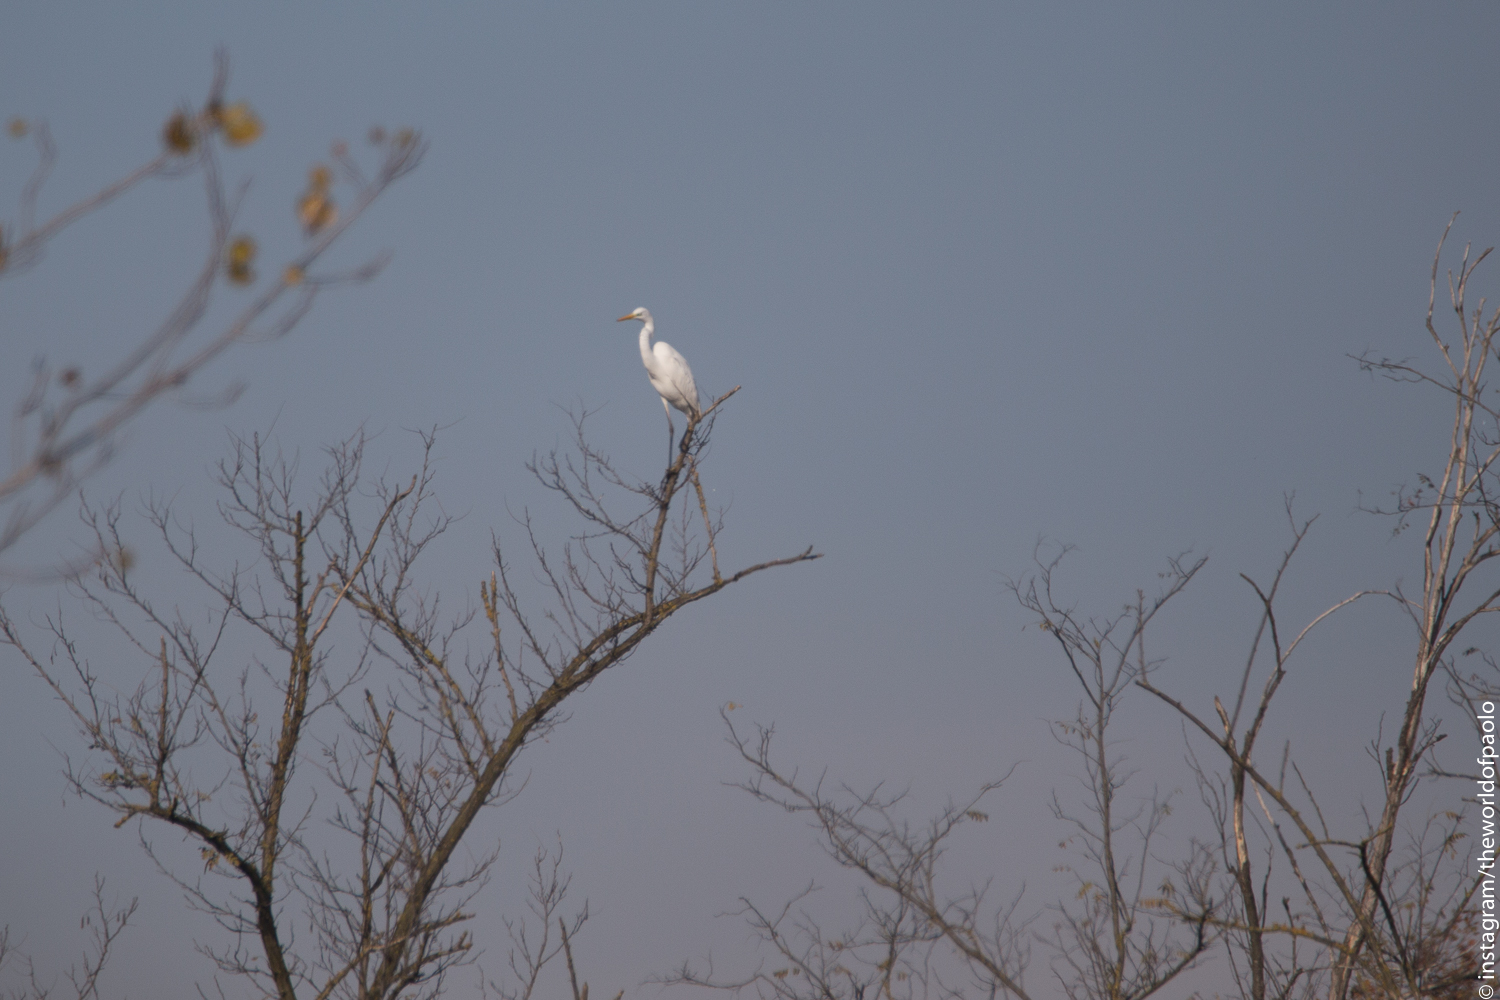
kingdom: Animalia
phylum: Chordata
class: Aves
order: Pelecaniformes
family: Ardeidae
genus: Ardea
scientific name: Ardea alba
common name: Great egret
